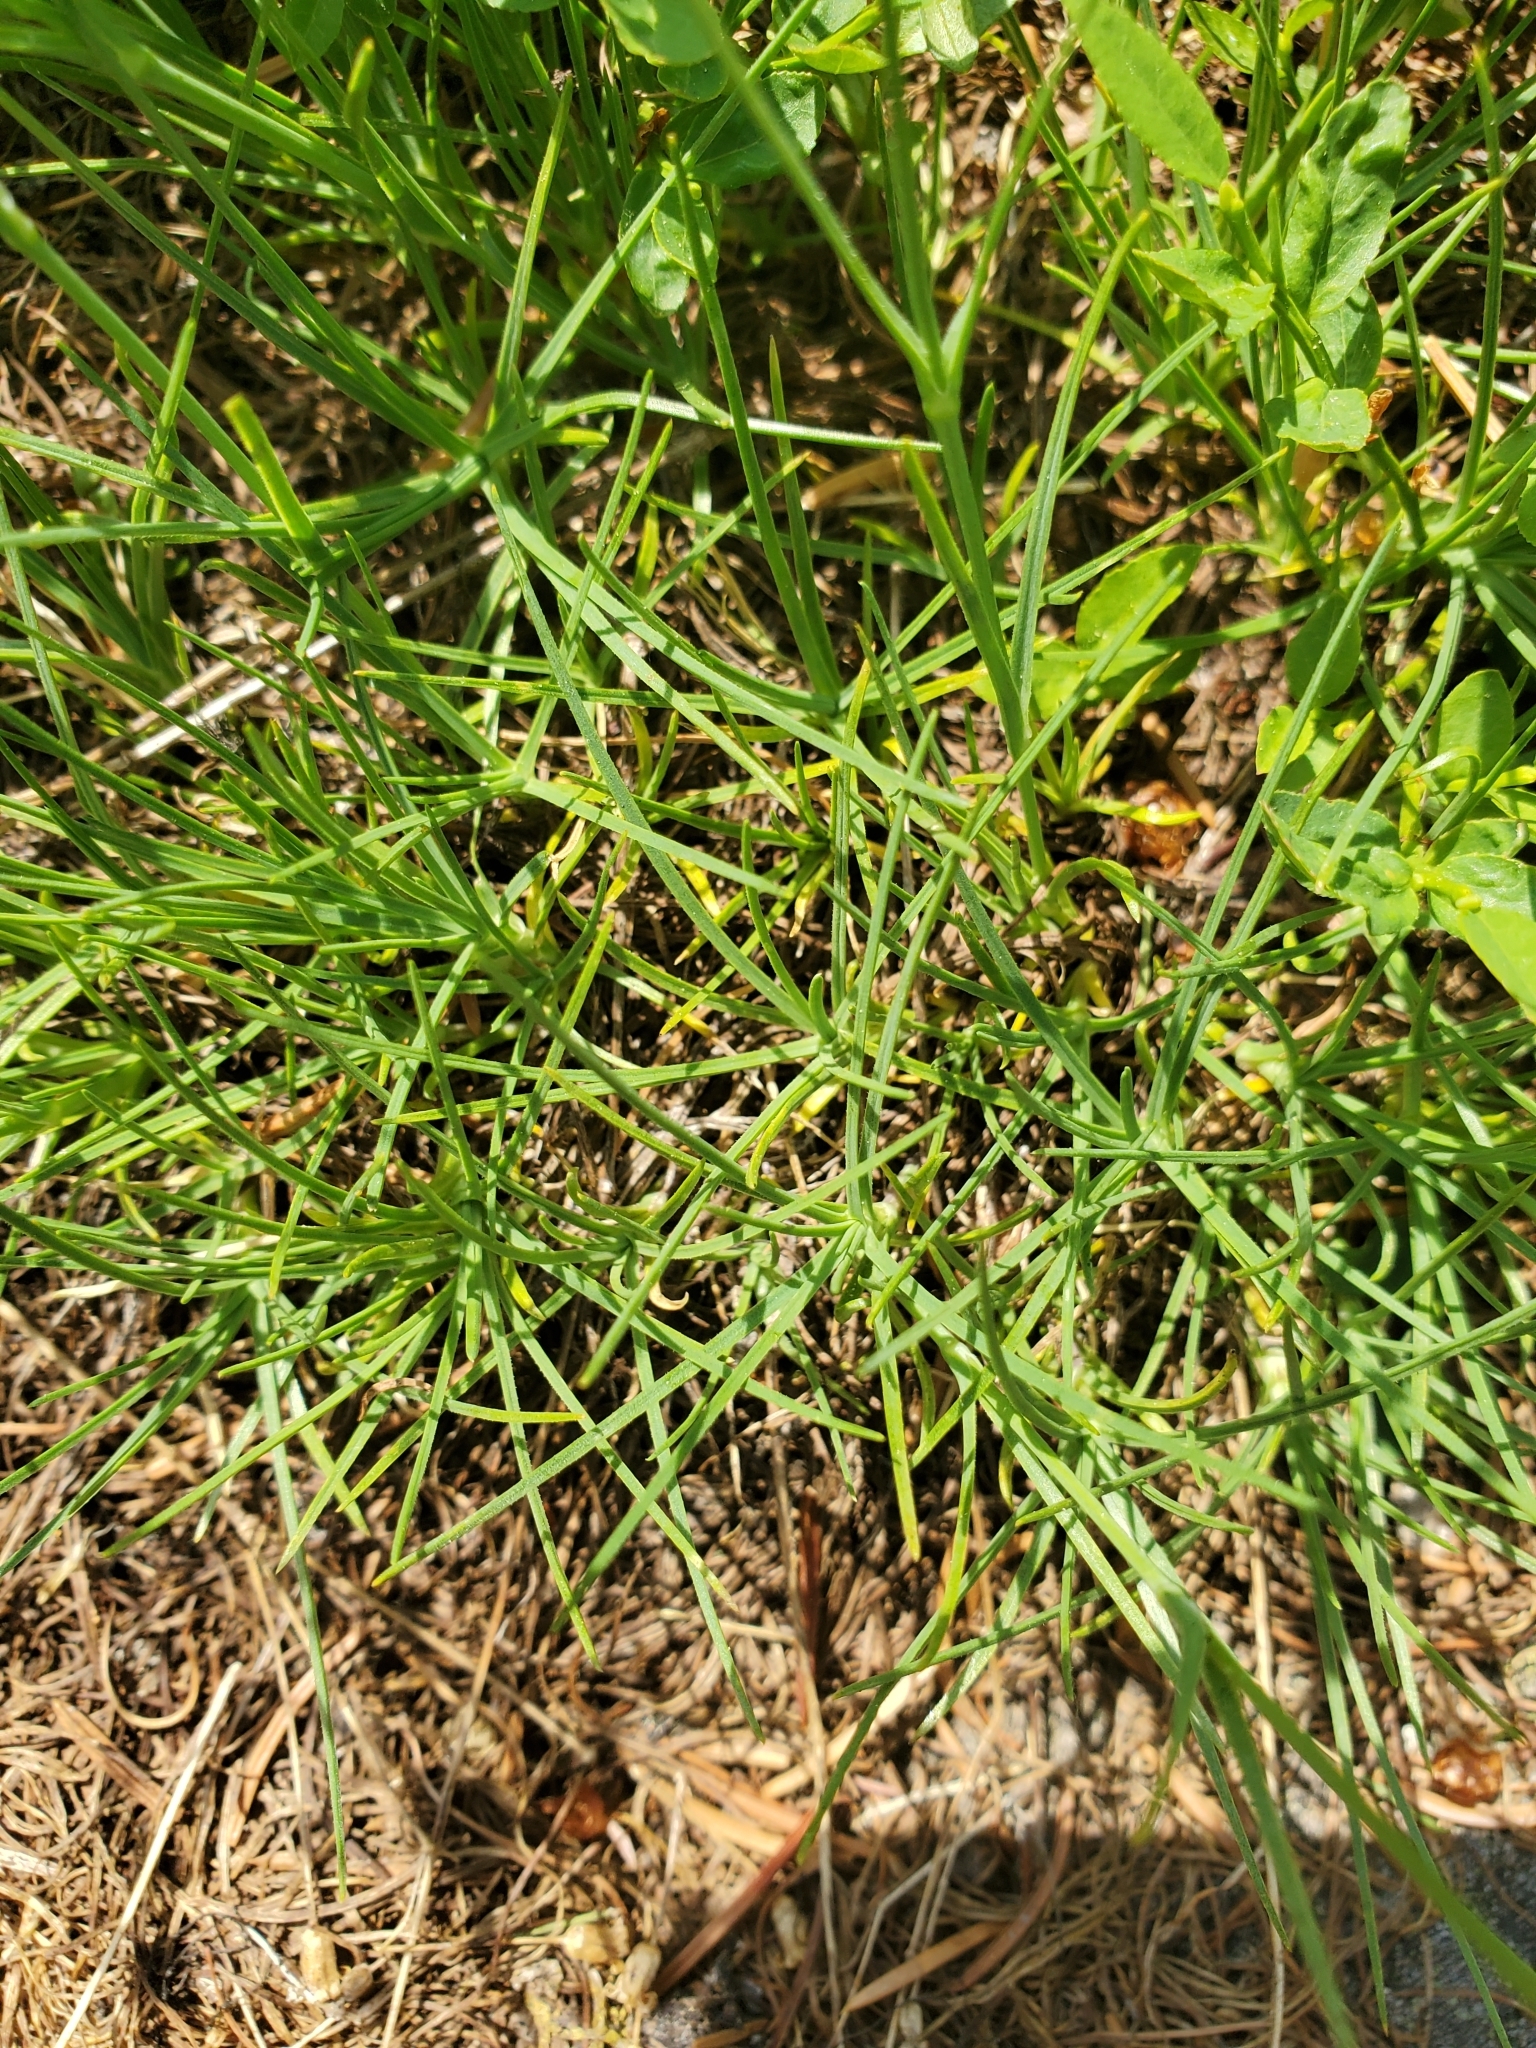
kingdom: Plantae
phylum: Tracheophyta
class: Magnoliopsida
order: Caryophyllales
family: Caryophyllaceae
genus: Eremogone
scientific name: Eremogone capillaris
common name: Slender mountain sandwort
